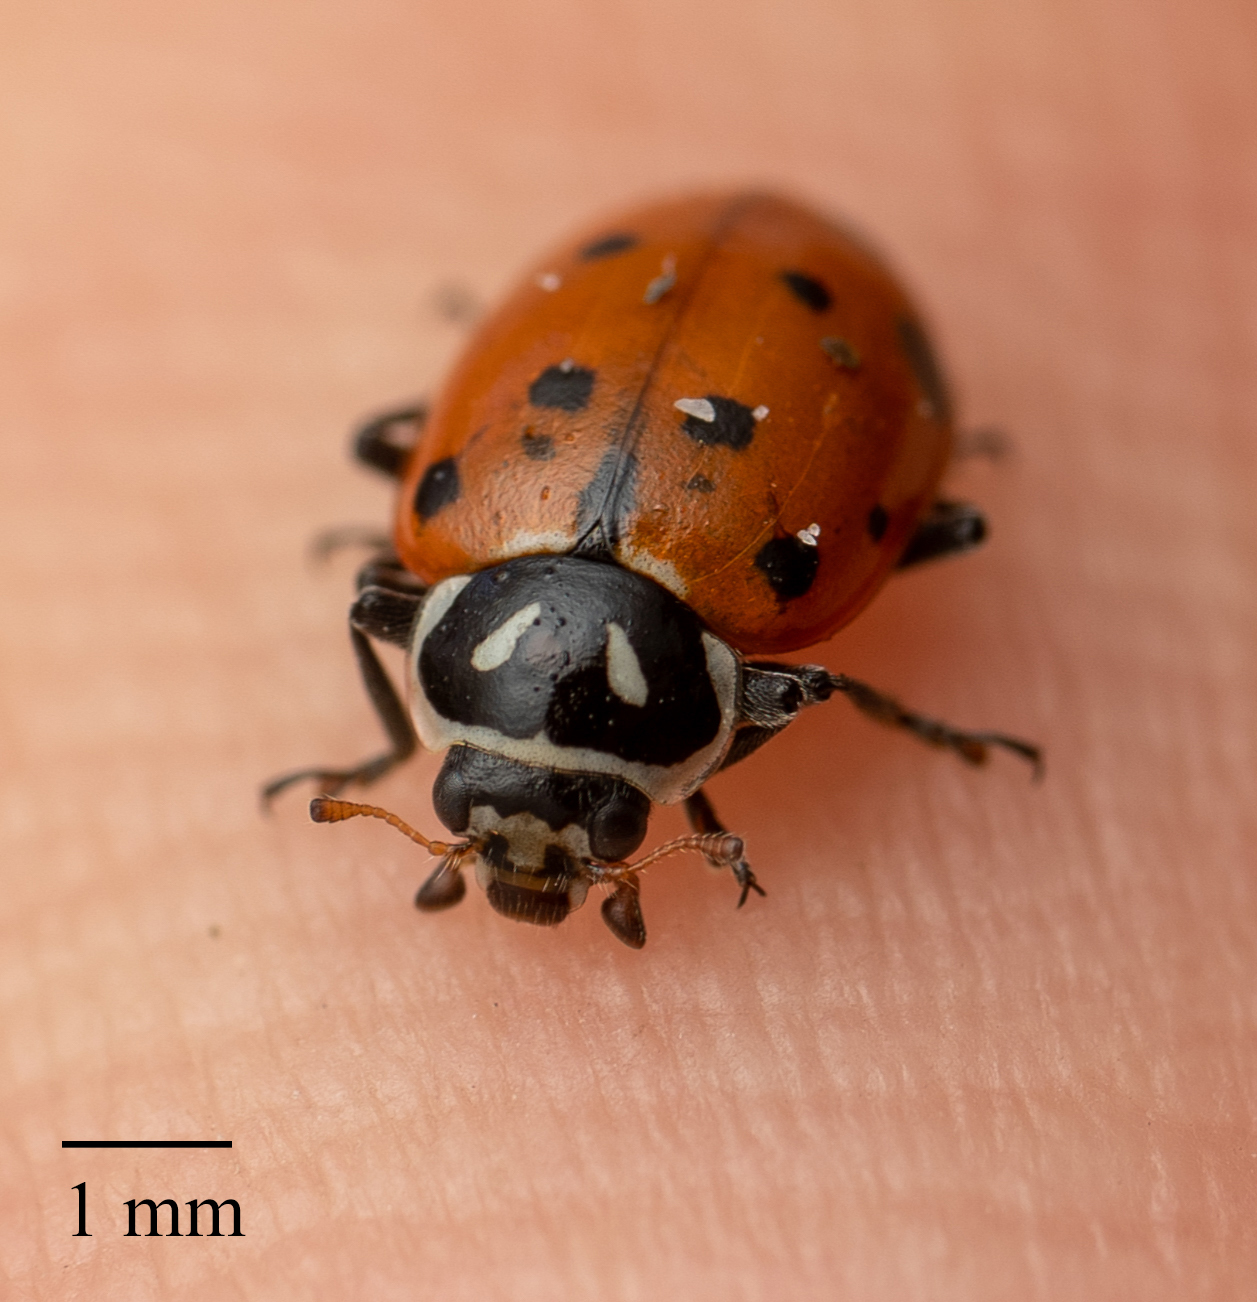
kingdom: Animalia
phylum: Arthropoda
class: Insecta
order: Coleoptera
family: Coccinellidae
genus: Hippodamia
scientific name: Hippodamia convergens
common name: Convergent lady beetle
